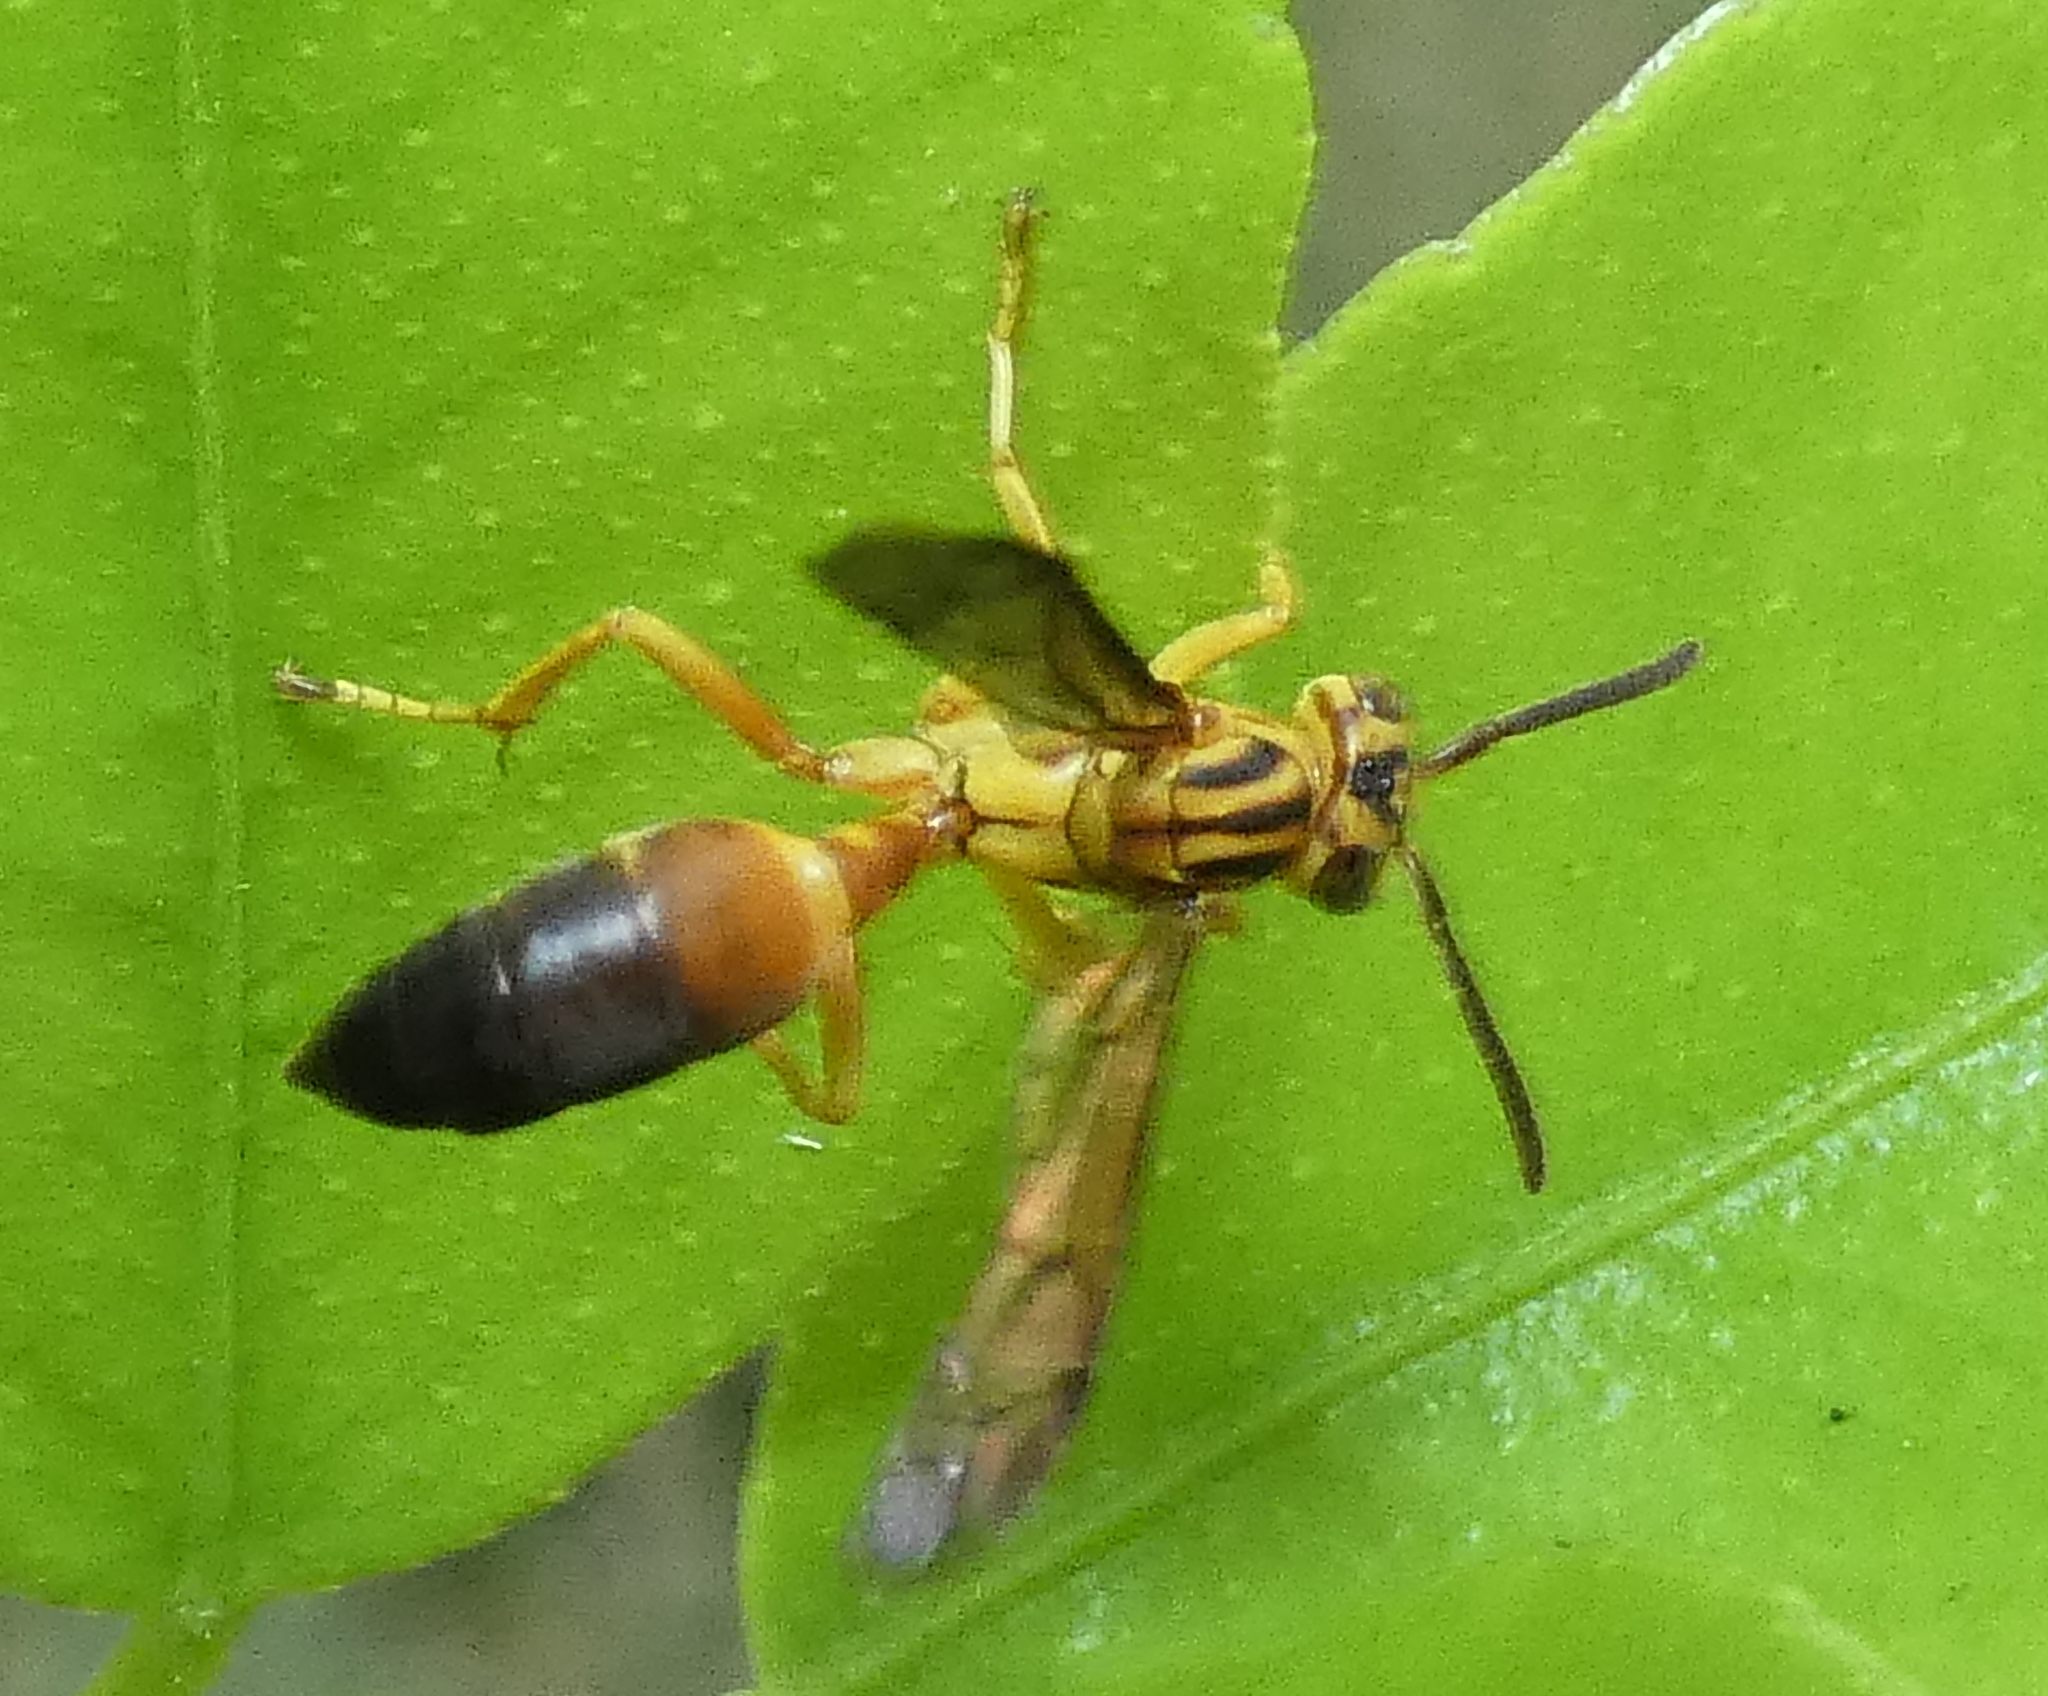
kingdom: Animalia
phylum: Arthropoda
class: Insecta
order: Hymenoptera
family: Vespidae
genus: Agelaia
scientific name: Agelaia pallipes
